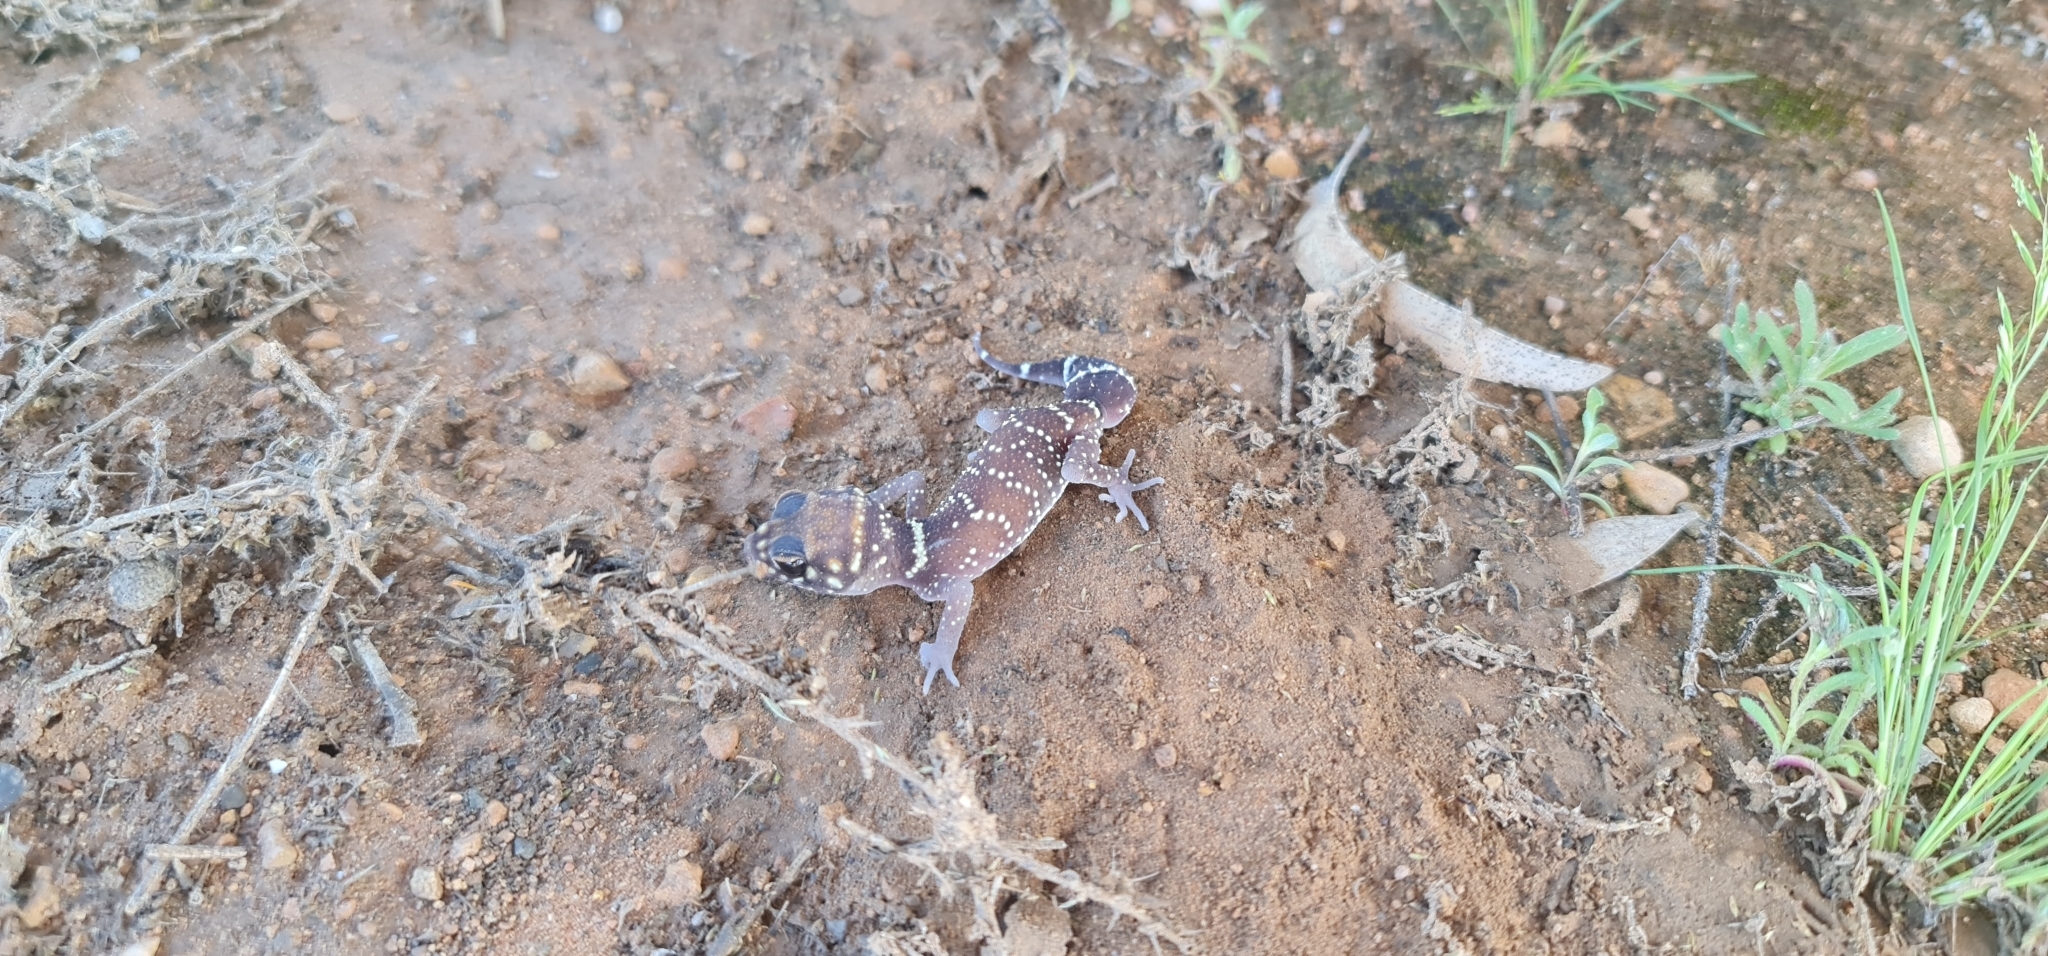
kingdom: Animalia
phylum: Chordata
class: Squamata
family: Carphodactylidae
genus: Underwoodisaurus
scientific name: Underwoodisaurus milii
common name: Barking gecko
